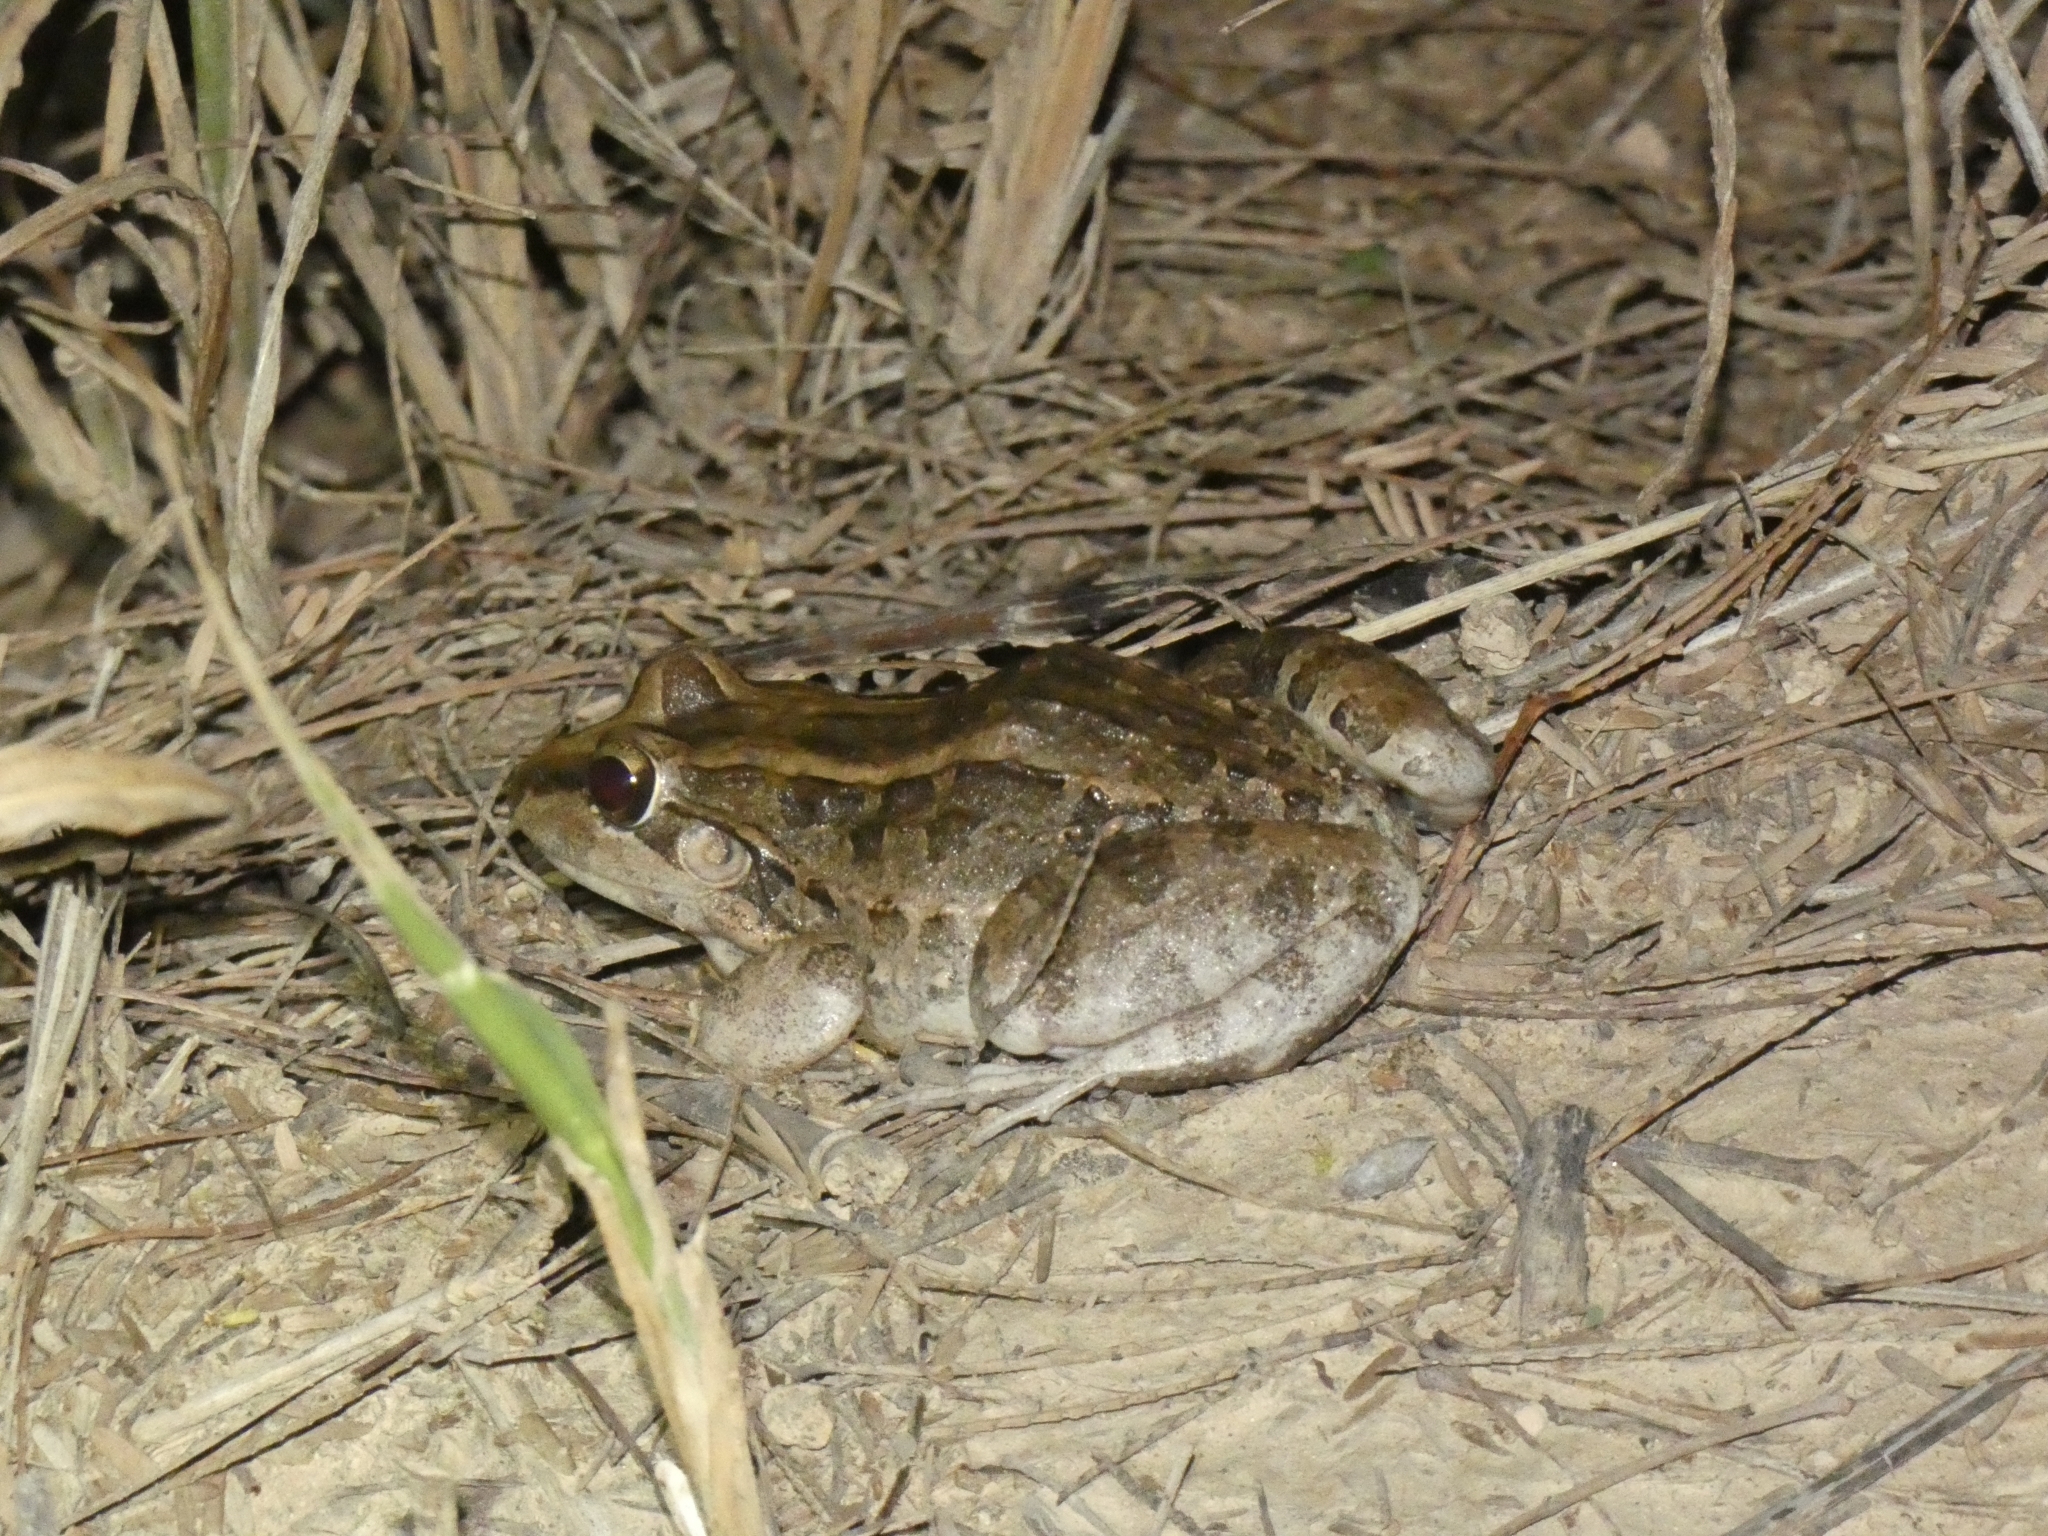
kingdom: Animalia
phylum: Chordata
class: Amphibia
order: Anura
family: Leptodactylidae
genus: Leptodactylus
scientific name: Leptodactylus macrosternum
